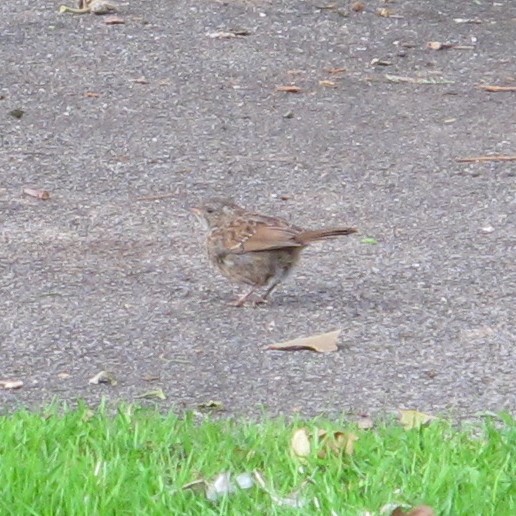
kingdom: Animalia
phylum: Chordata
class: Aves
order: Passeriformes
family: Prunellidae
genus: Prunella
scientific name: Prunella modularis
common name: Dunnock
